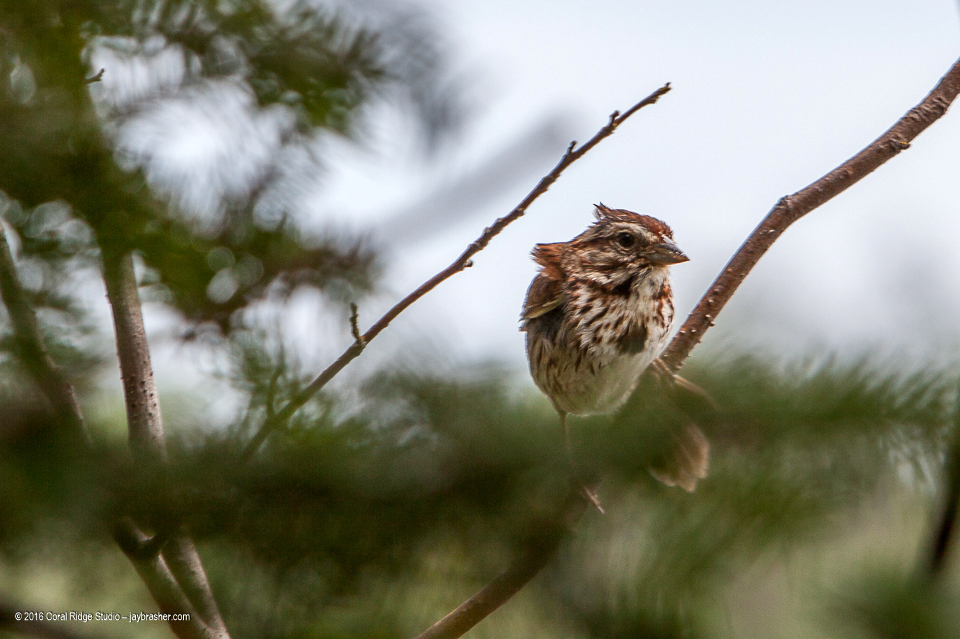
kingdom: Animalia
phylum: Chordata
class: Aves
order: Passeriformes
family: Passerellidae
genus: Melospiza
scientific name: Melospiza melodia
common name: Song sparrow
